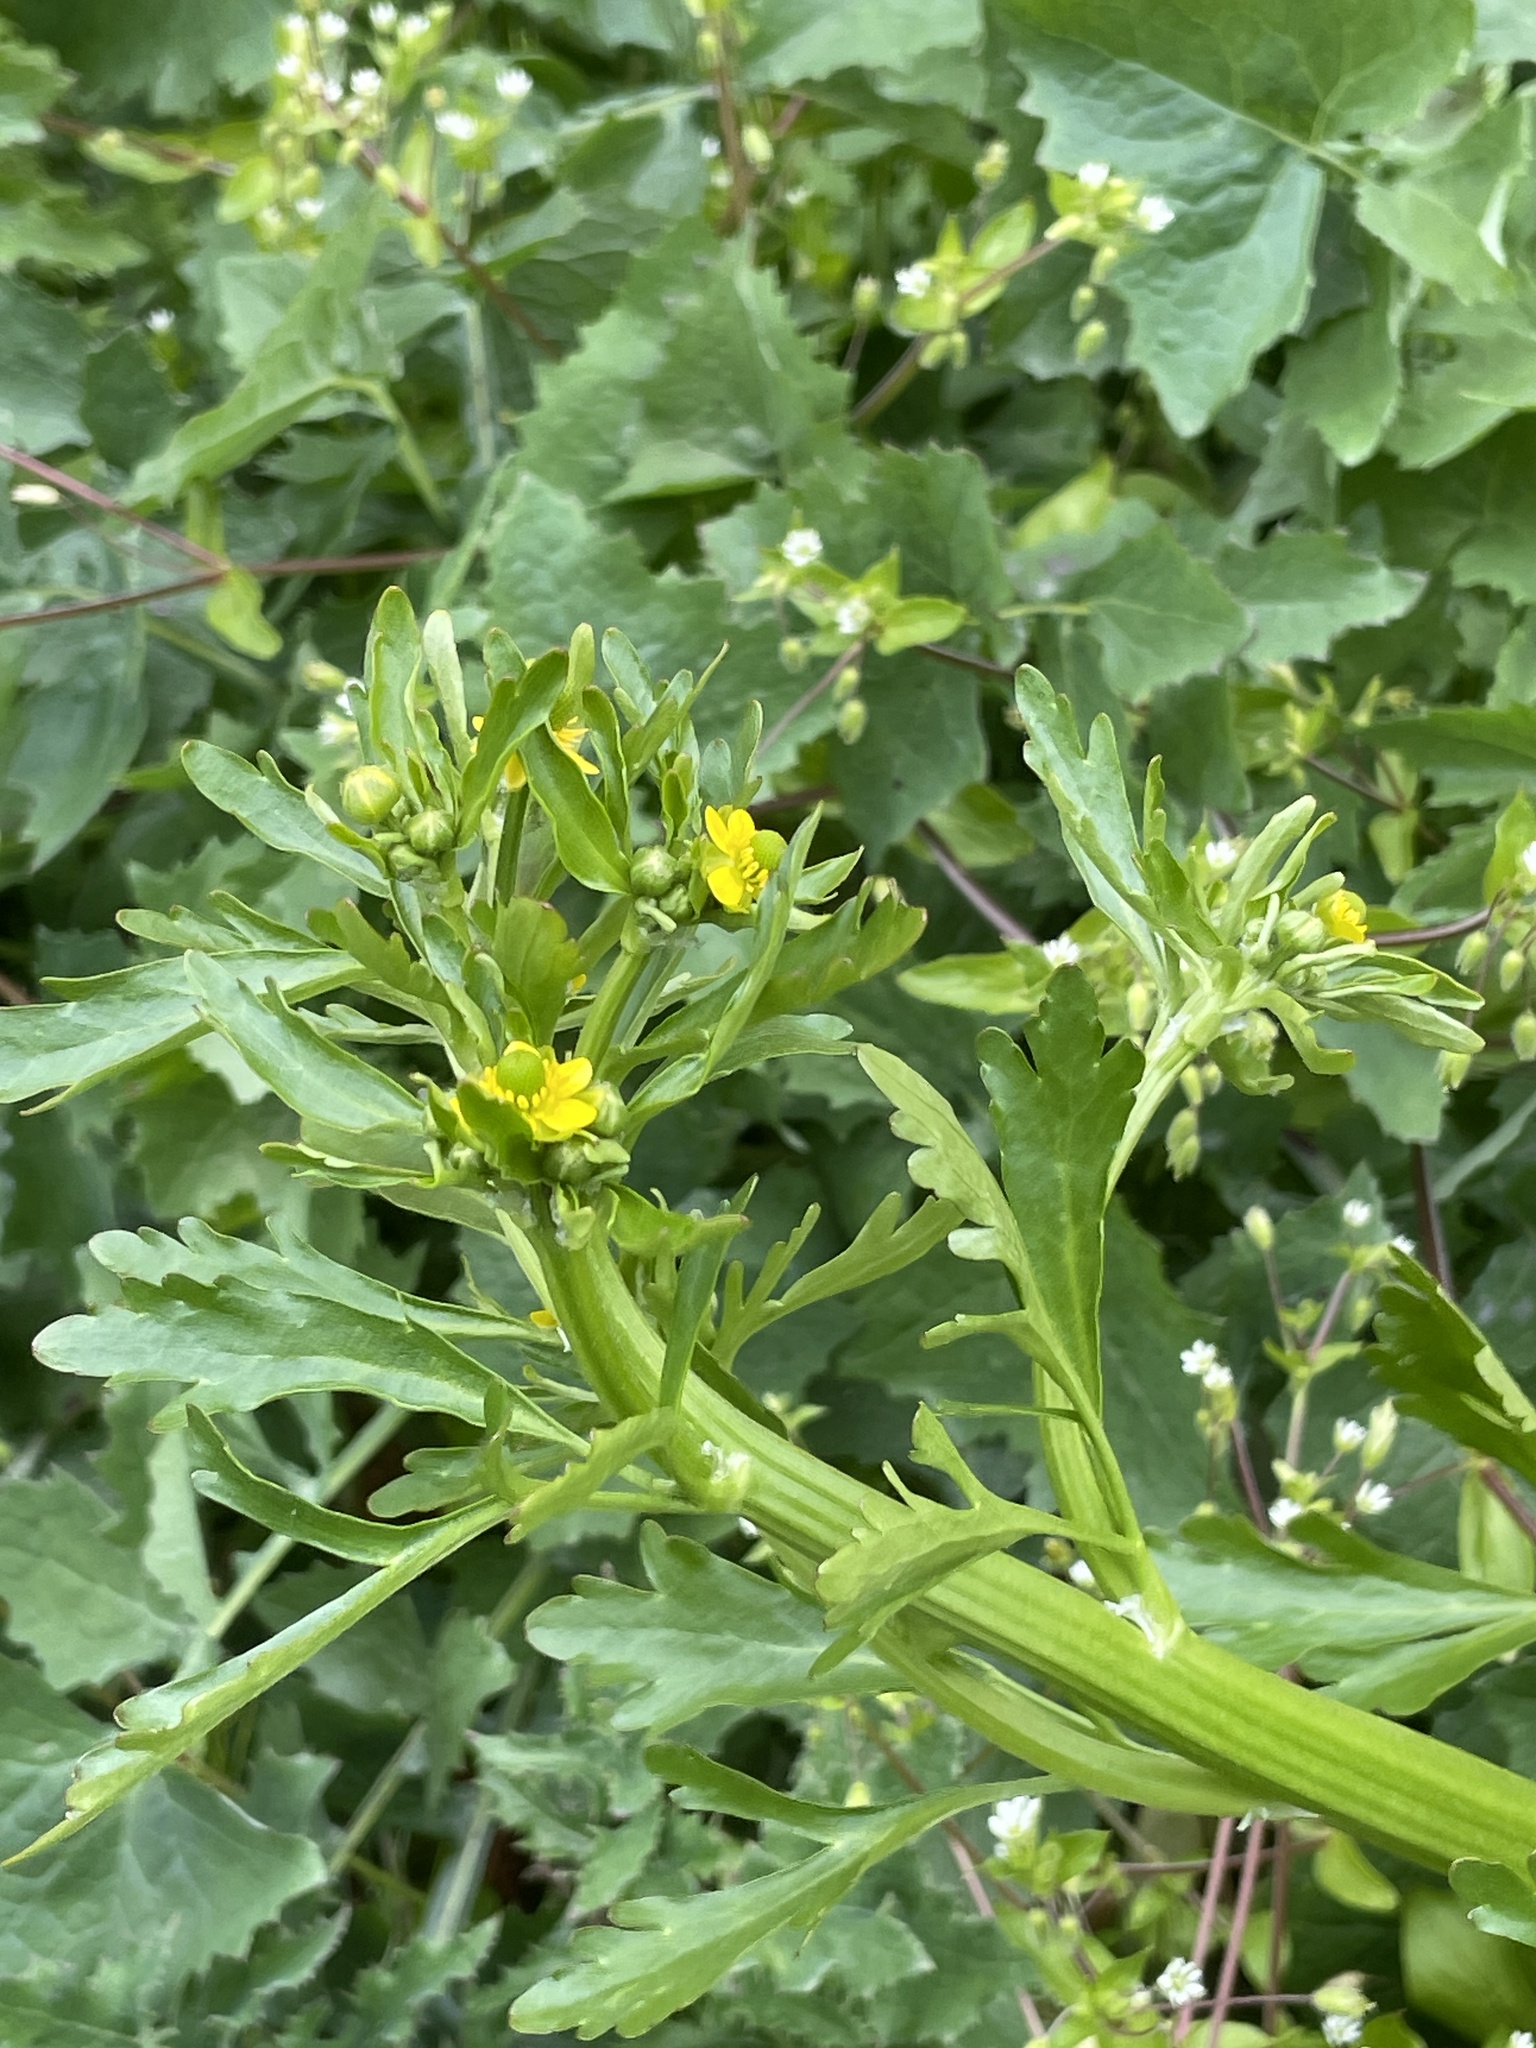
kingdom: Plantae
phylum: Tracheophyta
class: Magnoliopsida
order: Ranunculales
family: Ranunculaceae
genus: Ranunculus
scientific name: Ranunculus sceleratus
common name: Celery-leaved buttercup
